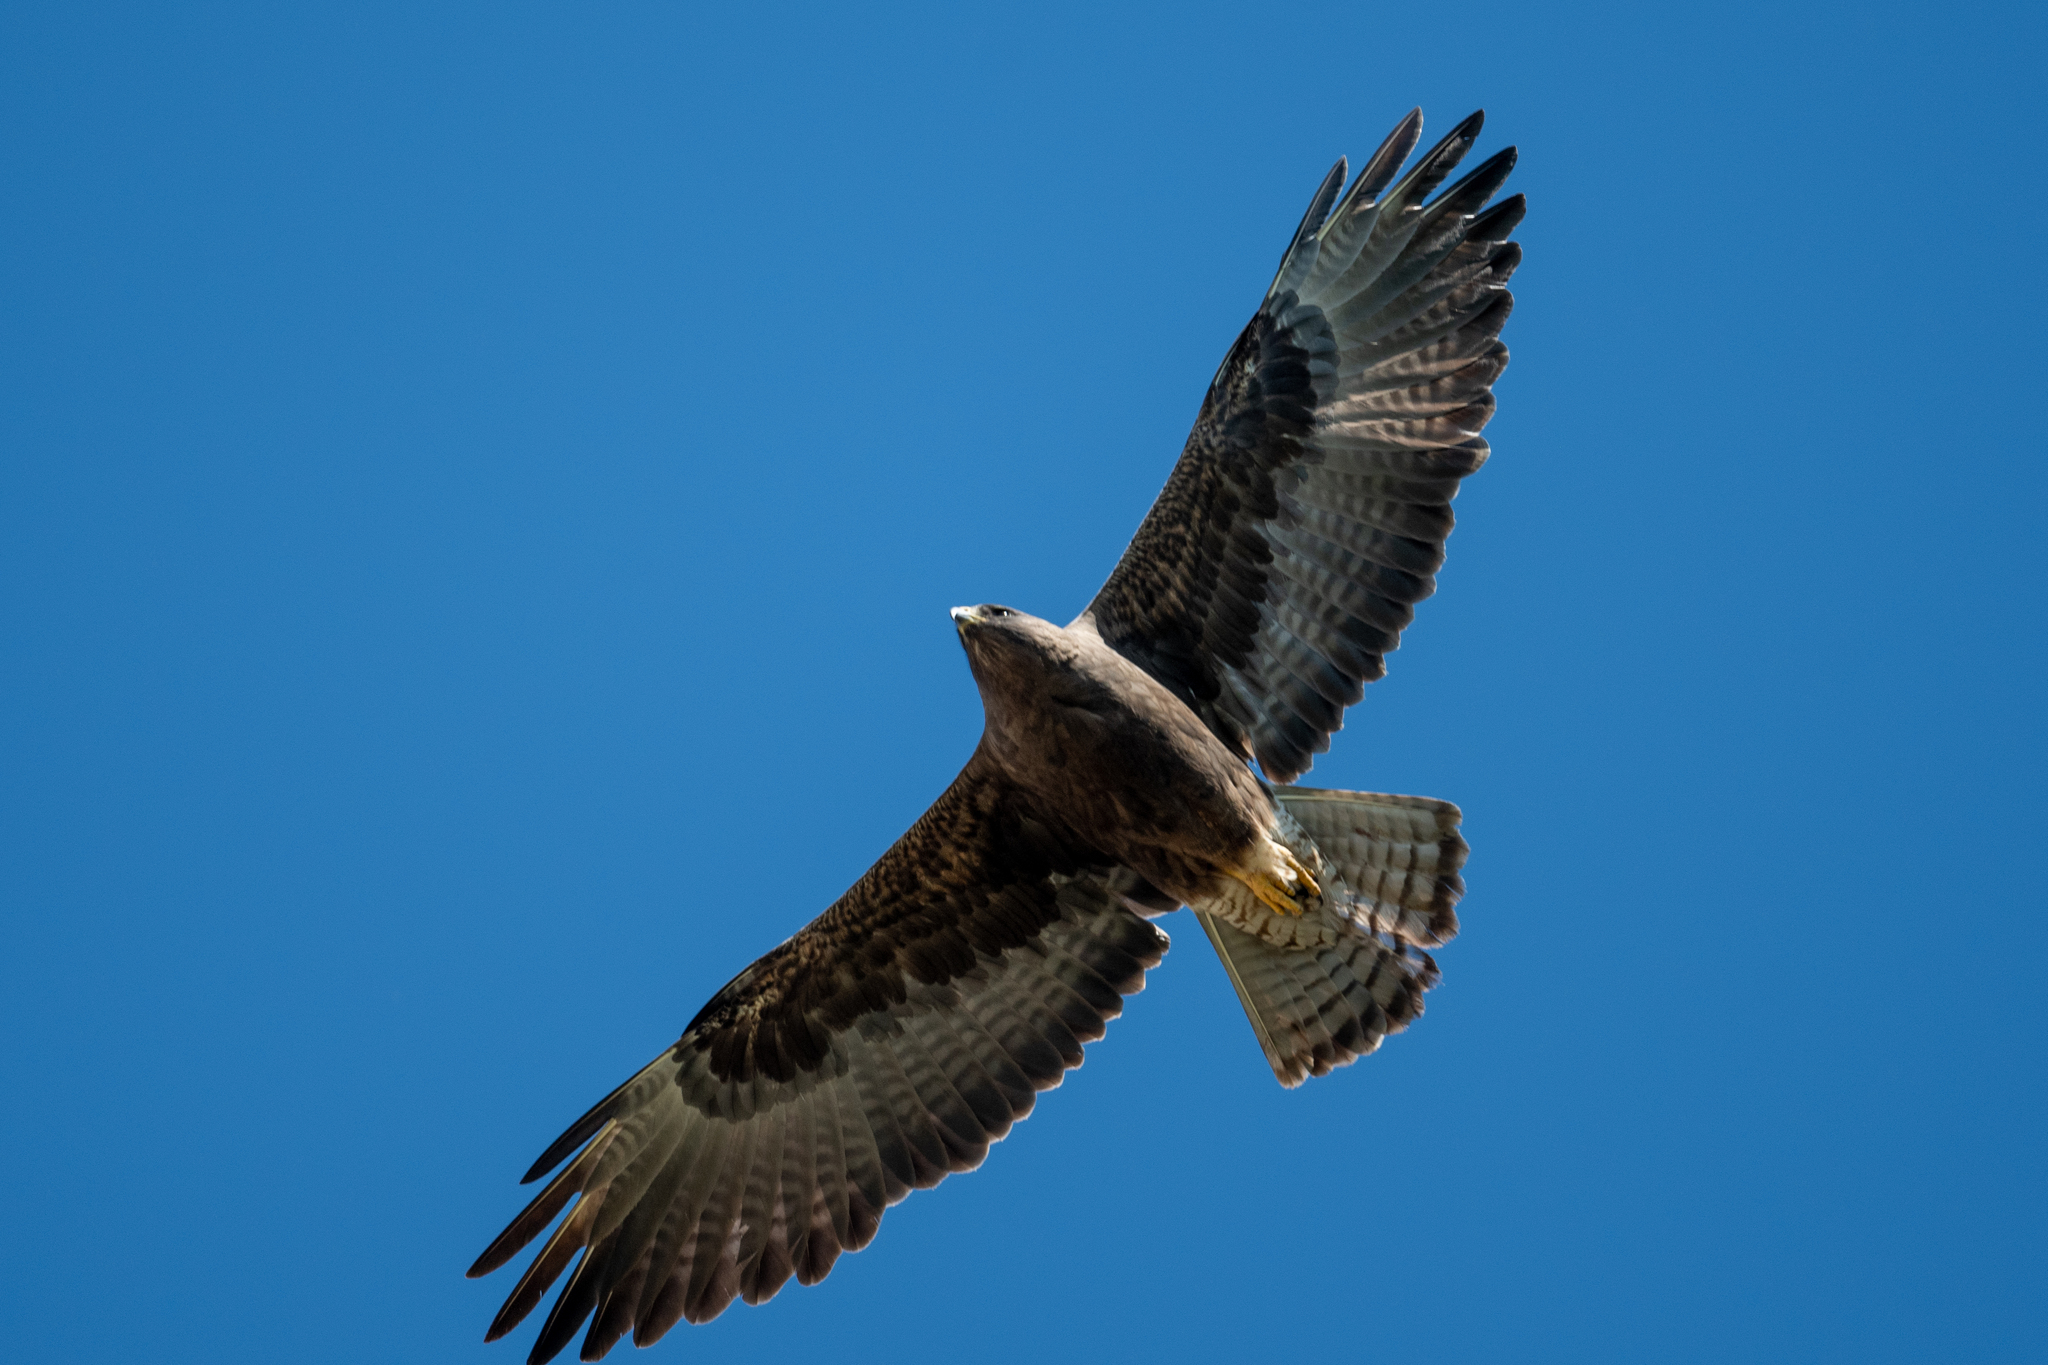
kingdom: Animalia
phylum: Chordata
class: Aves
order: Accipitriformes
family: Accipitridae
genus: Buteo
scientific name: Buteo swainsoni
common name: Swainson's hawk
